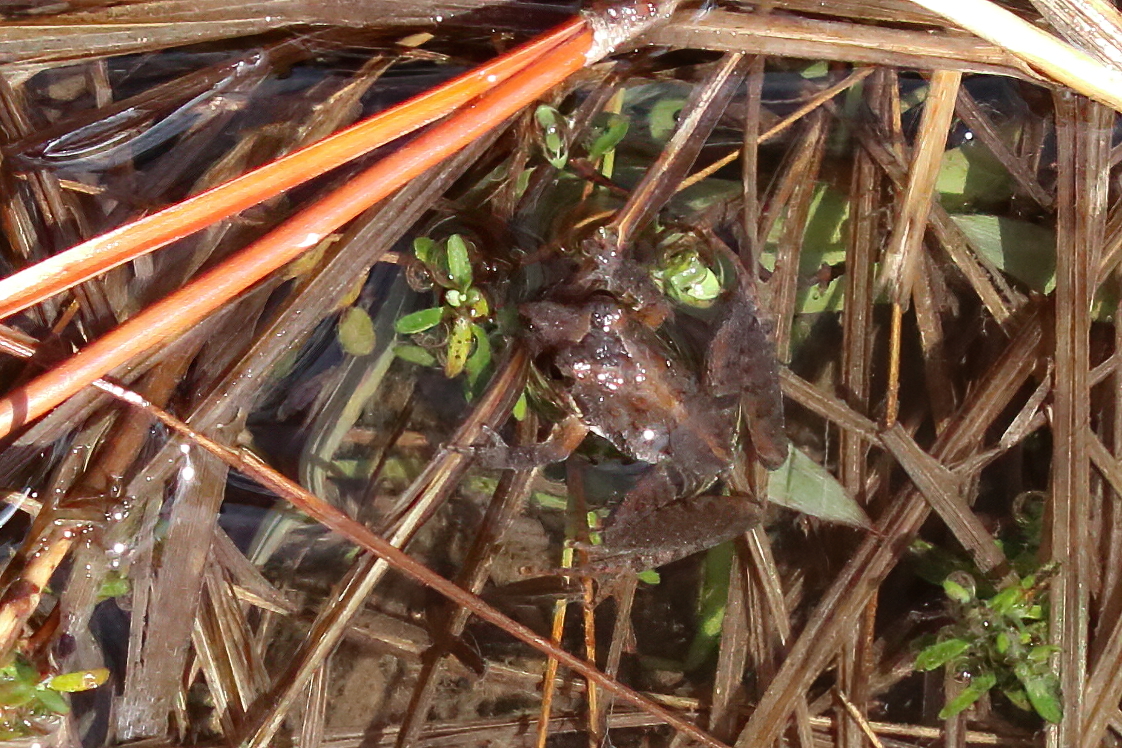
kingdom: Animalia
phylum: Chordata
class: Amphibia
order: Anura
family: Hylidae
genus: Acris
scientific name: Acris gryllus
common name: Southern cricket frog
